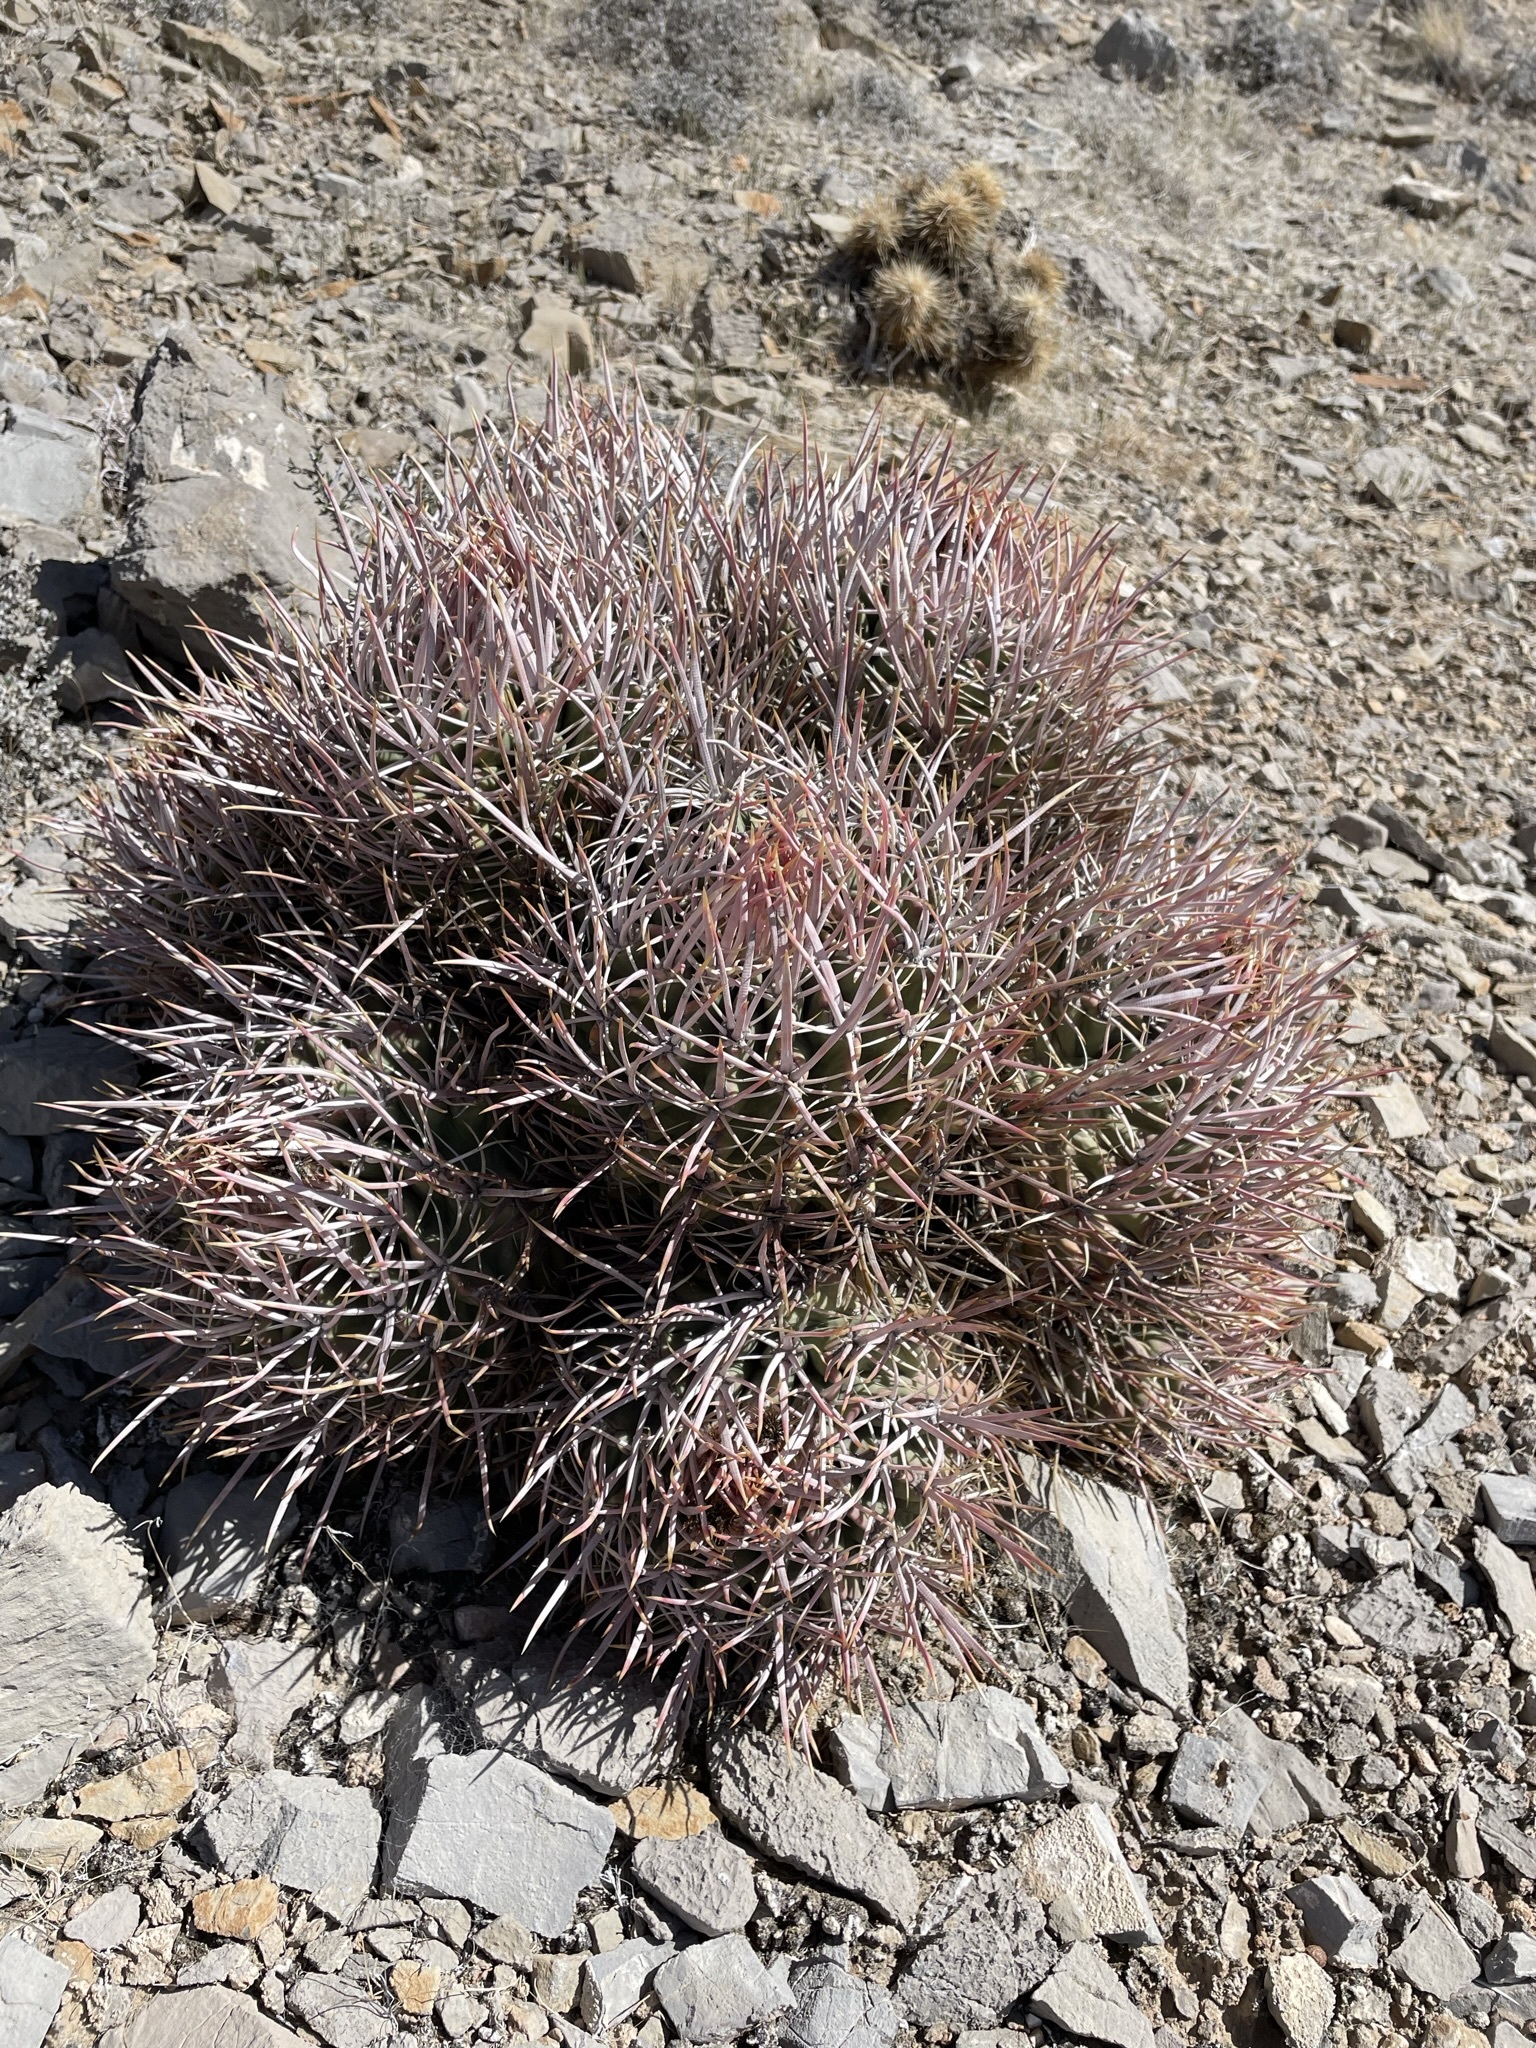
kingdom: Plantae
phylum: Tracheophyta
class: Magnoliopsida
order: Caryophyllales
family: Cactaceae
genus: Echinocactus
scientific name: Echinocactus polycephalus
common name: Cottontop cactus
